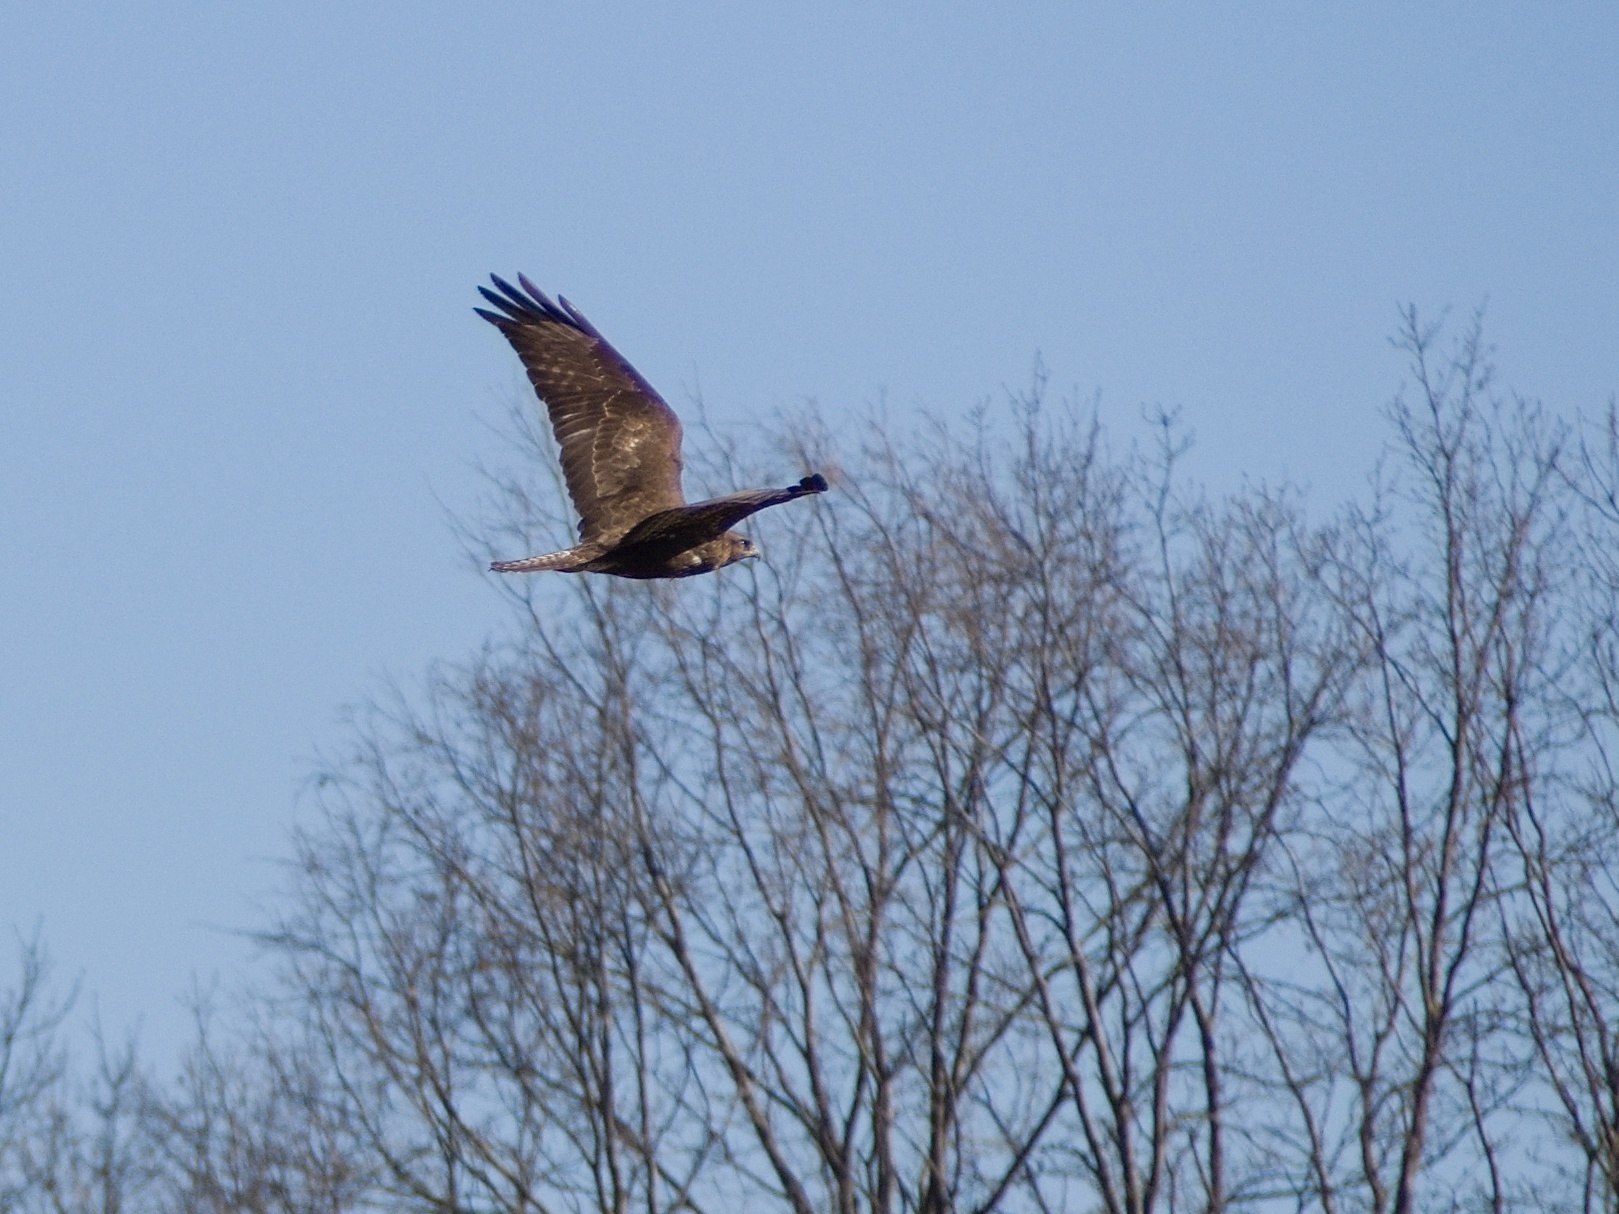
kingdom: Animalia
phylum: Chordata
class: Aves
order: Accipitriformes
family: Accipitridae
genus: Buteo
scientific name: Buteo buteo
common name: Common buzzard
